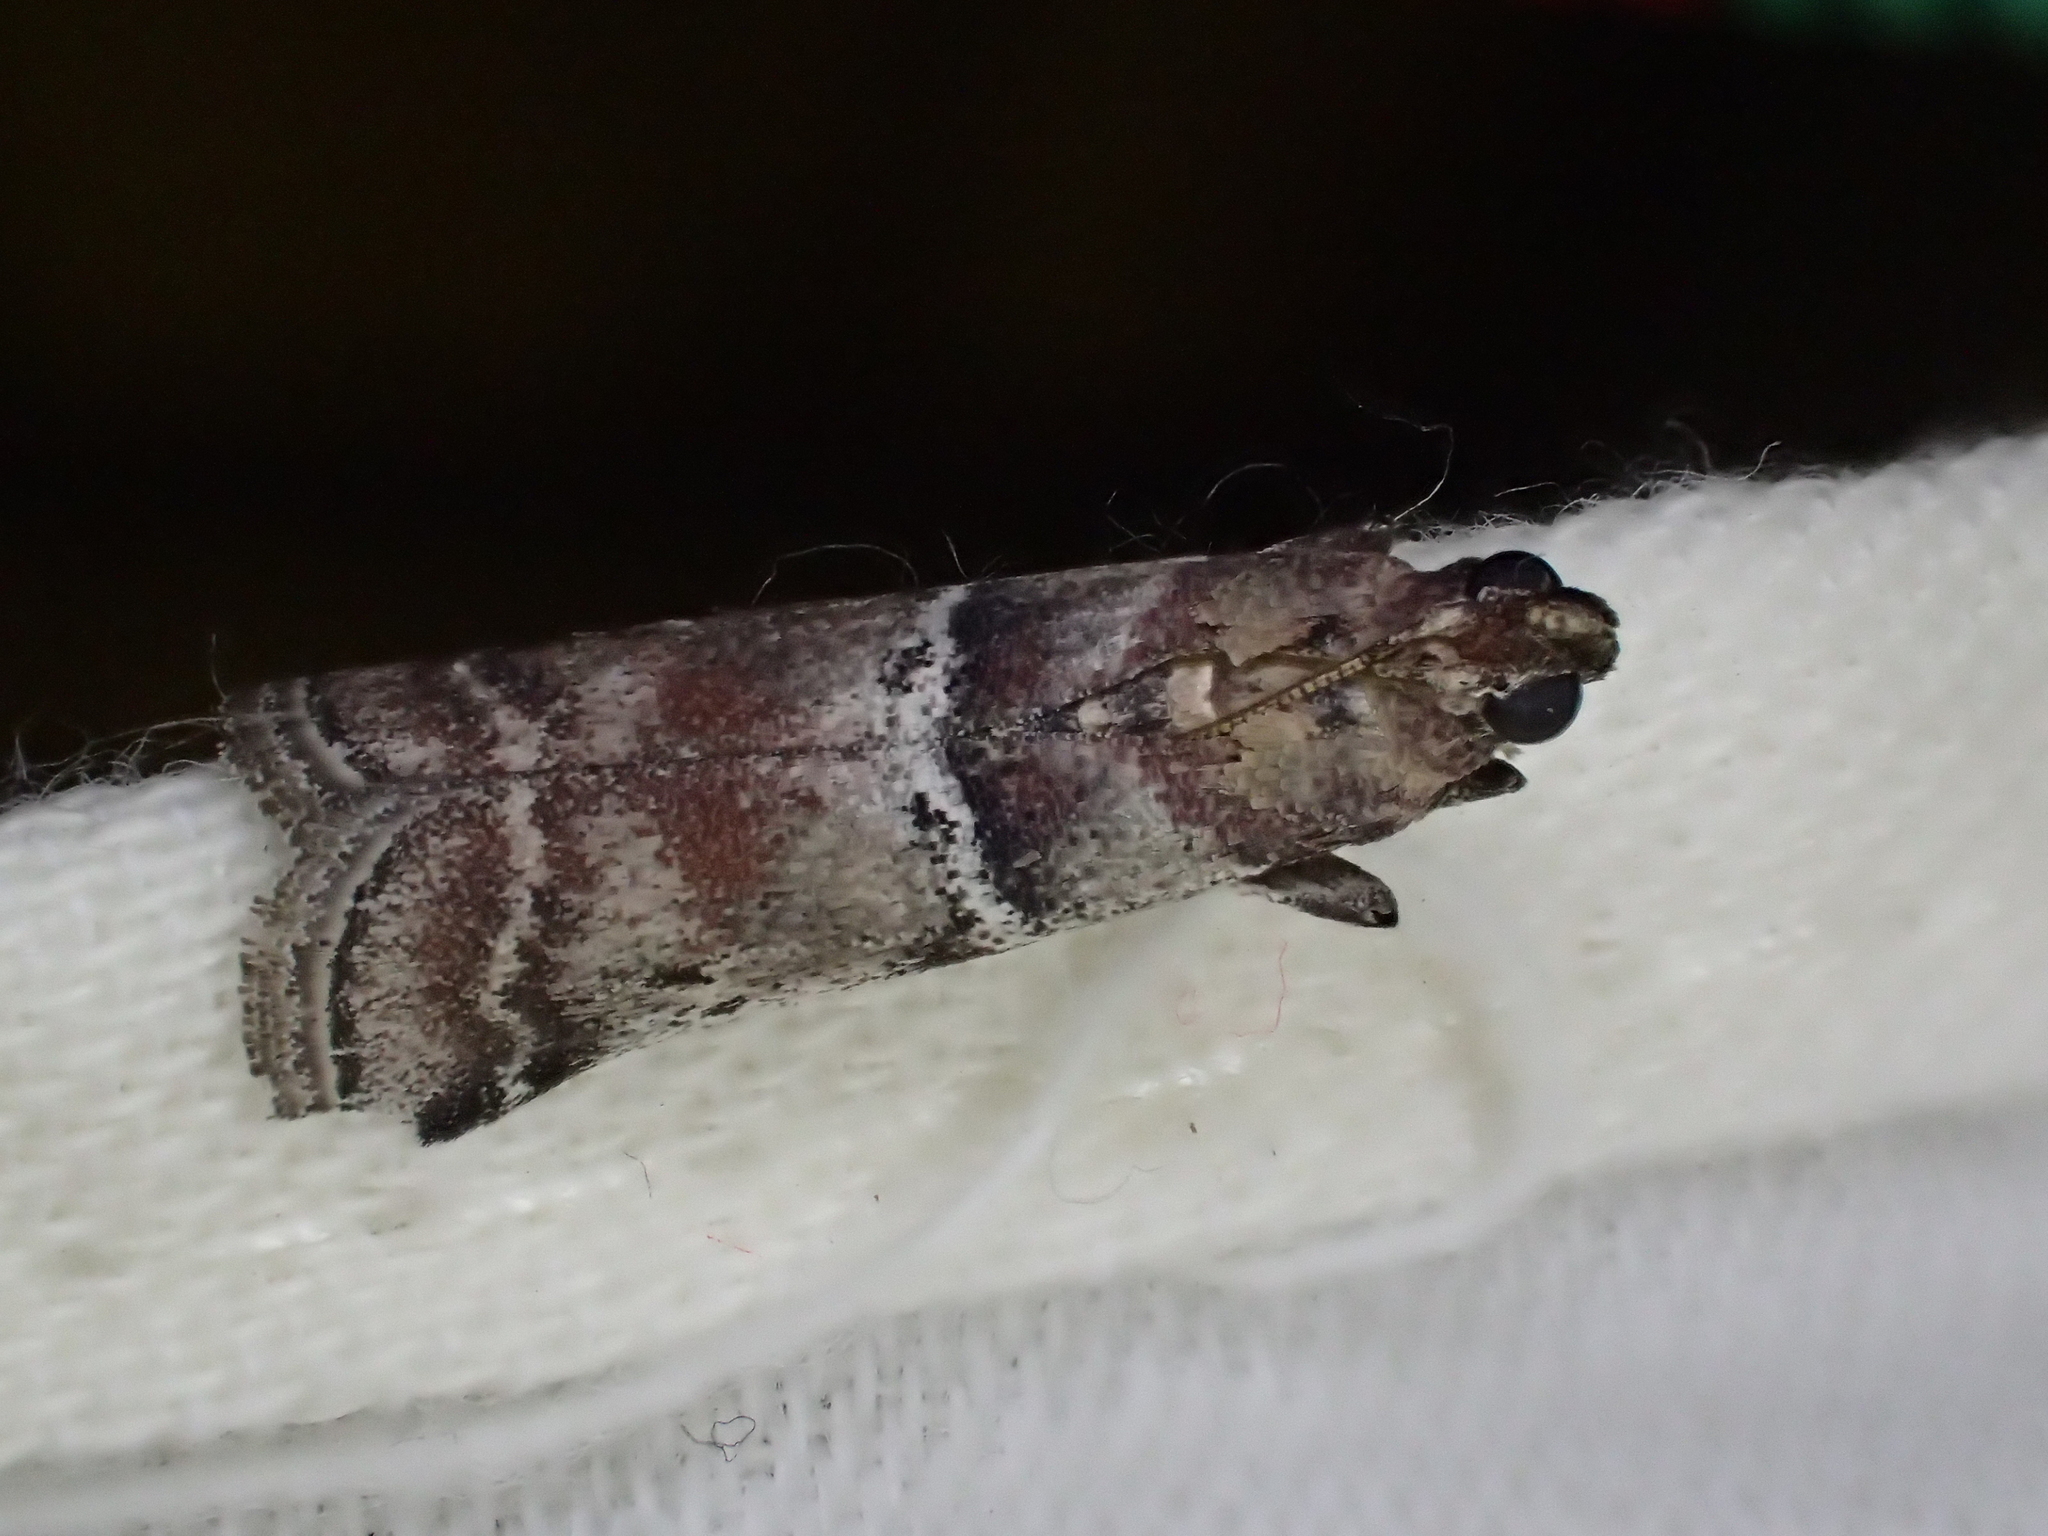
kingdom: Animalia
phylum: Arthropoda
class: Insecta
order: Lepidoptera
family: Pyralidae
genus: Alophia
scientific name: Alophia combustella
